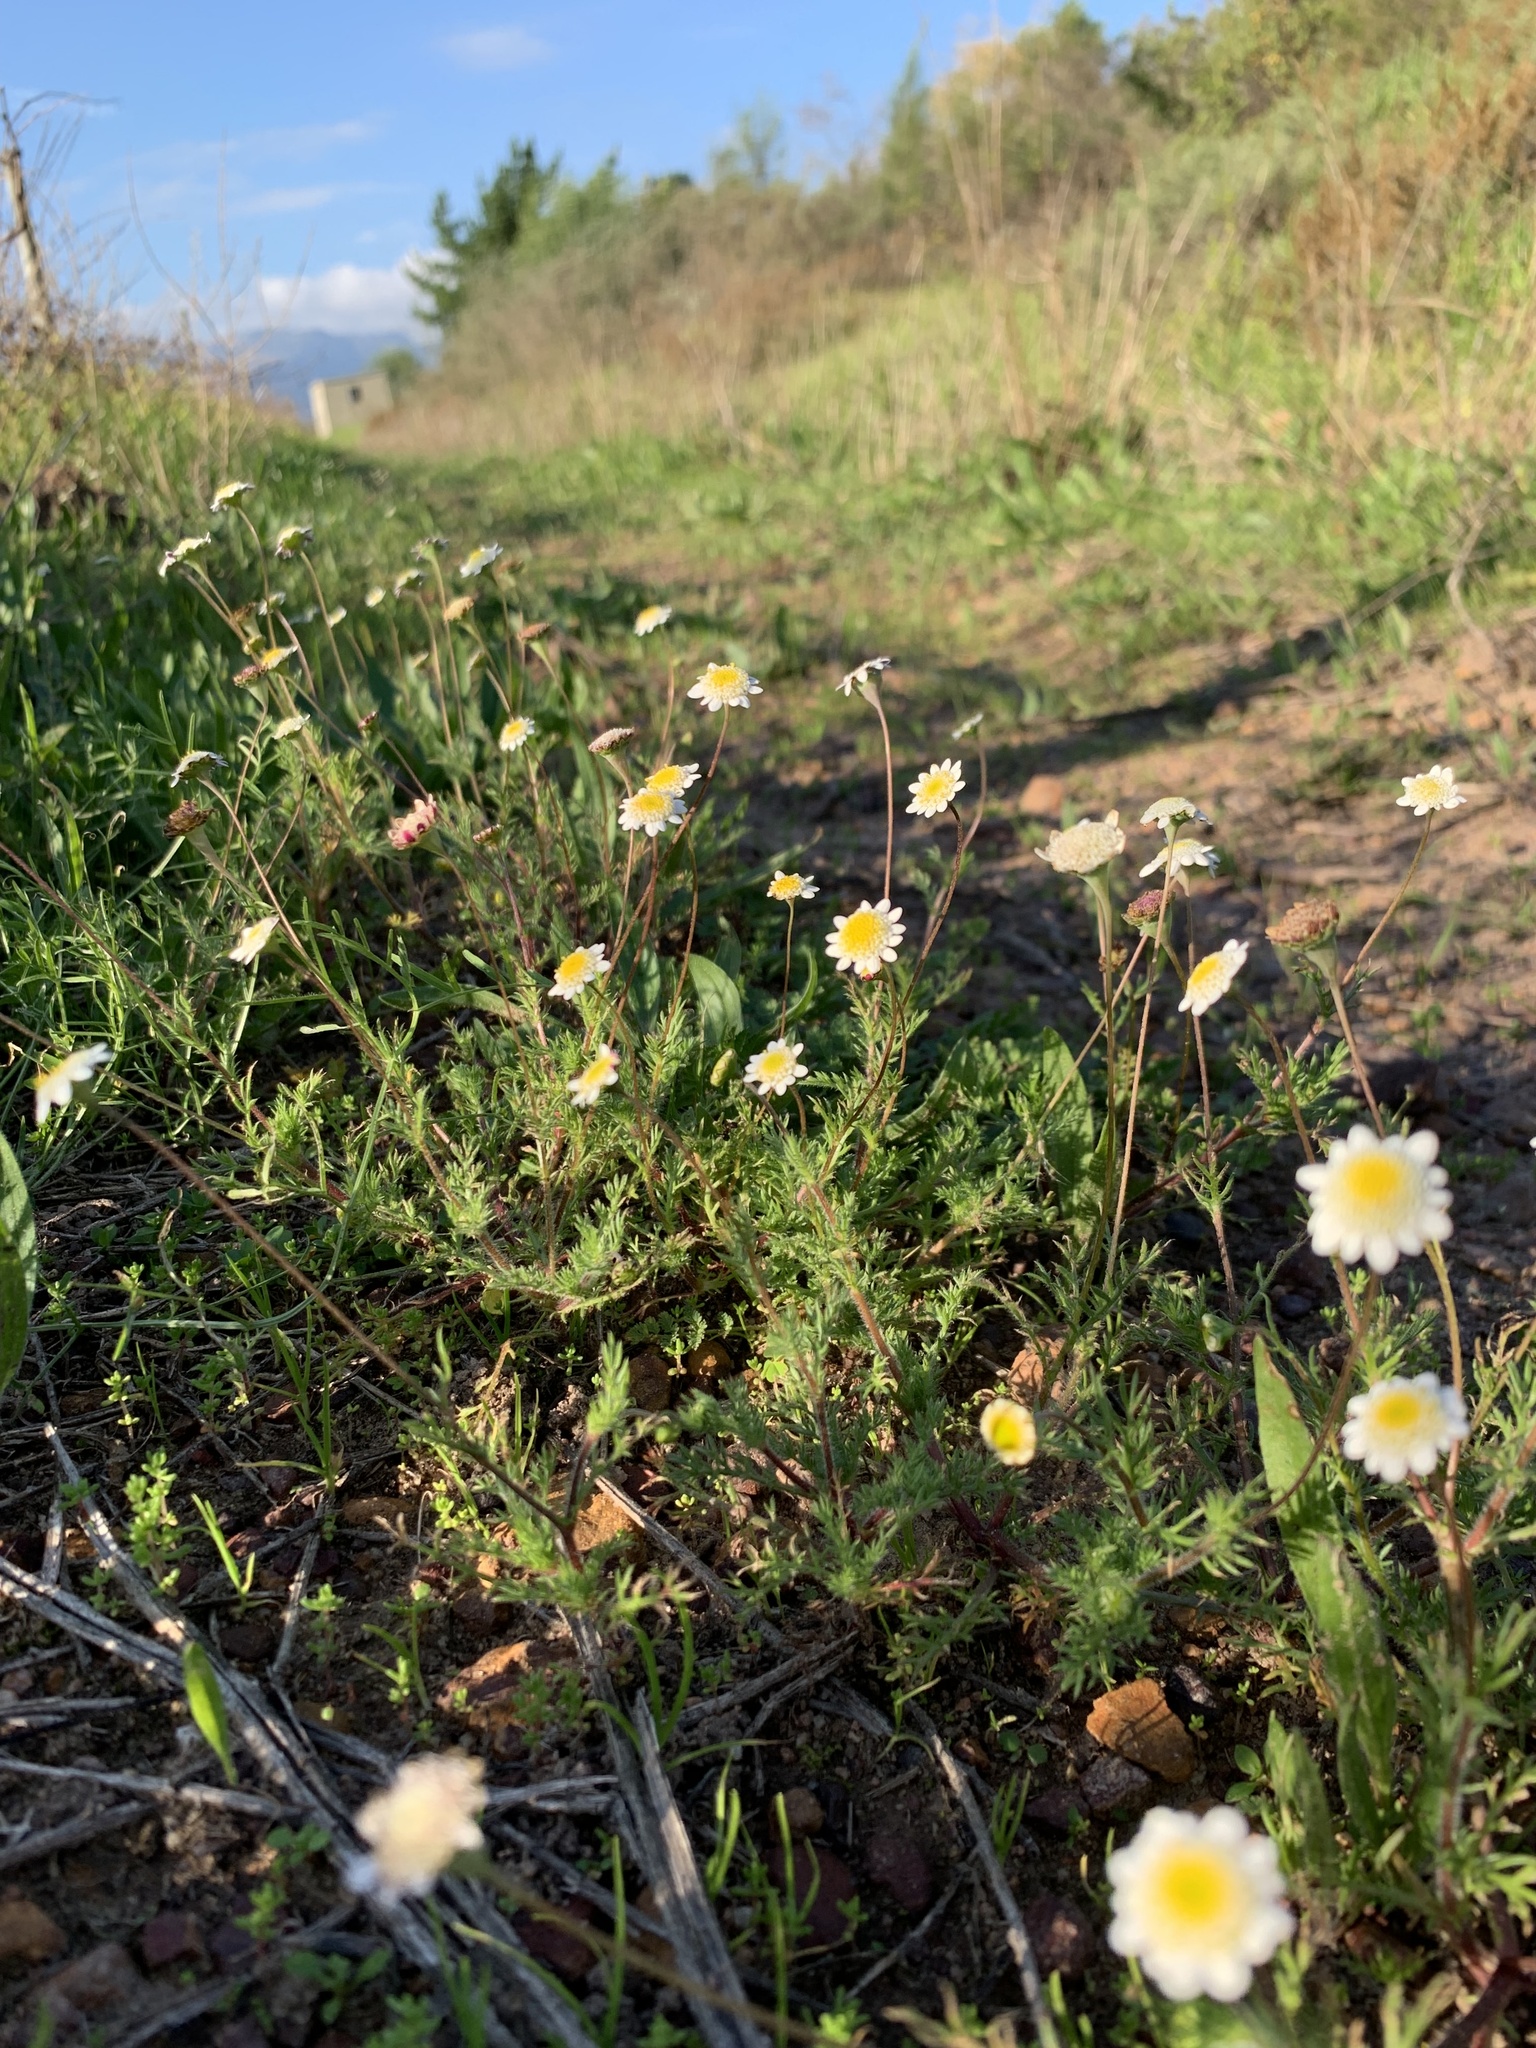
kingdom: Plantae
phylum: Tracheophyta
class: Magnoliopsida
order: Asterales
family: Asteraceae
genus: Cotula
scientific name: Cotula turbinata
